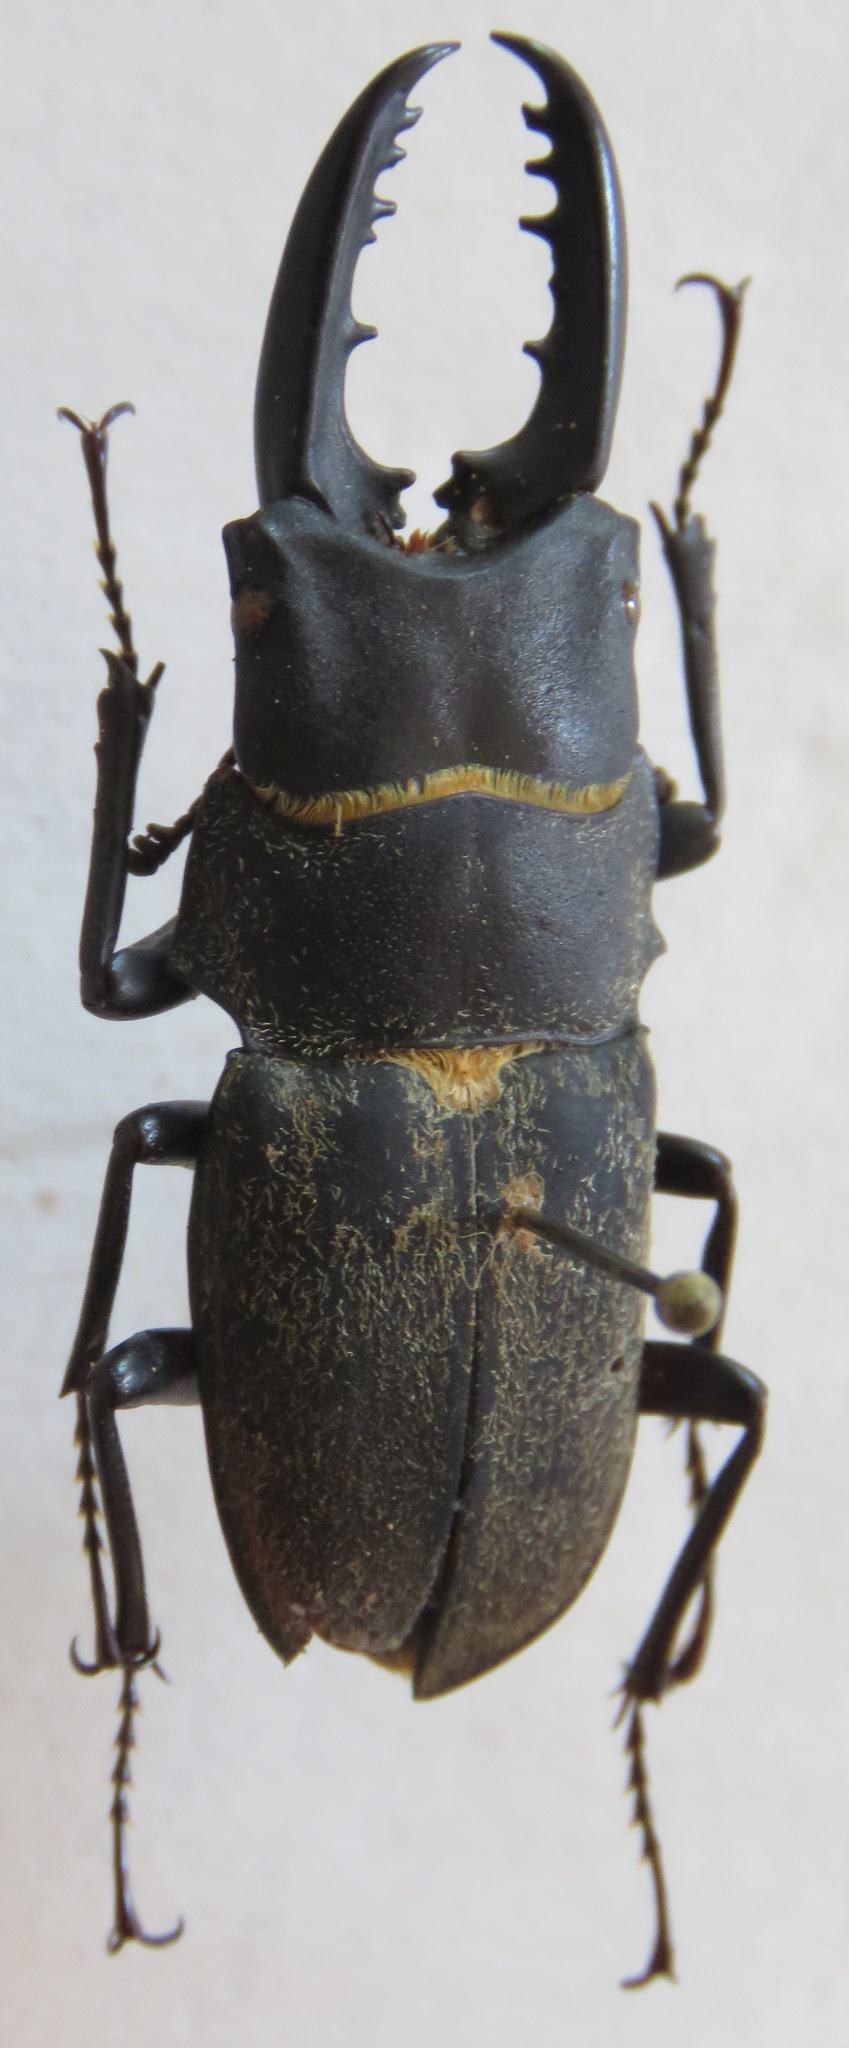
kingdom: Animalia
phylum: Arthropoda
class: Insecta
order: Coleoptera
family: Lucanidae
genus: Leptinopterus
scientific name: Leptinopterus fryi
